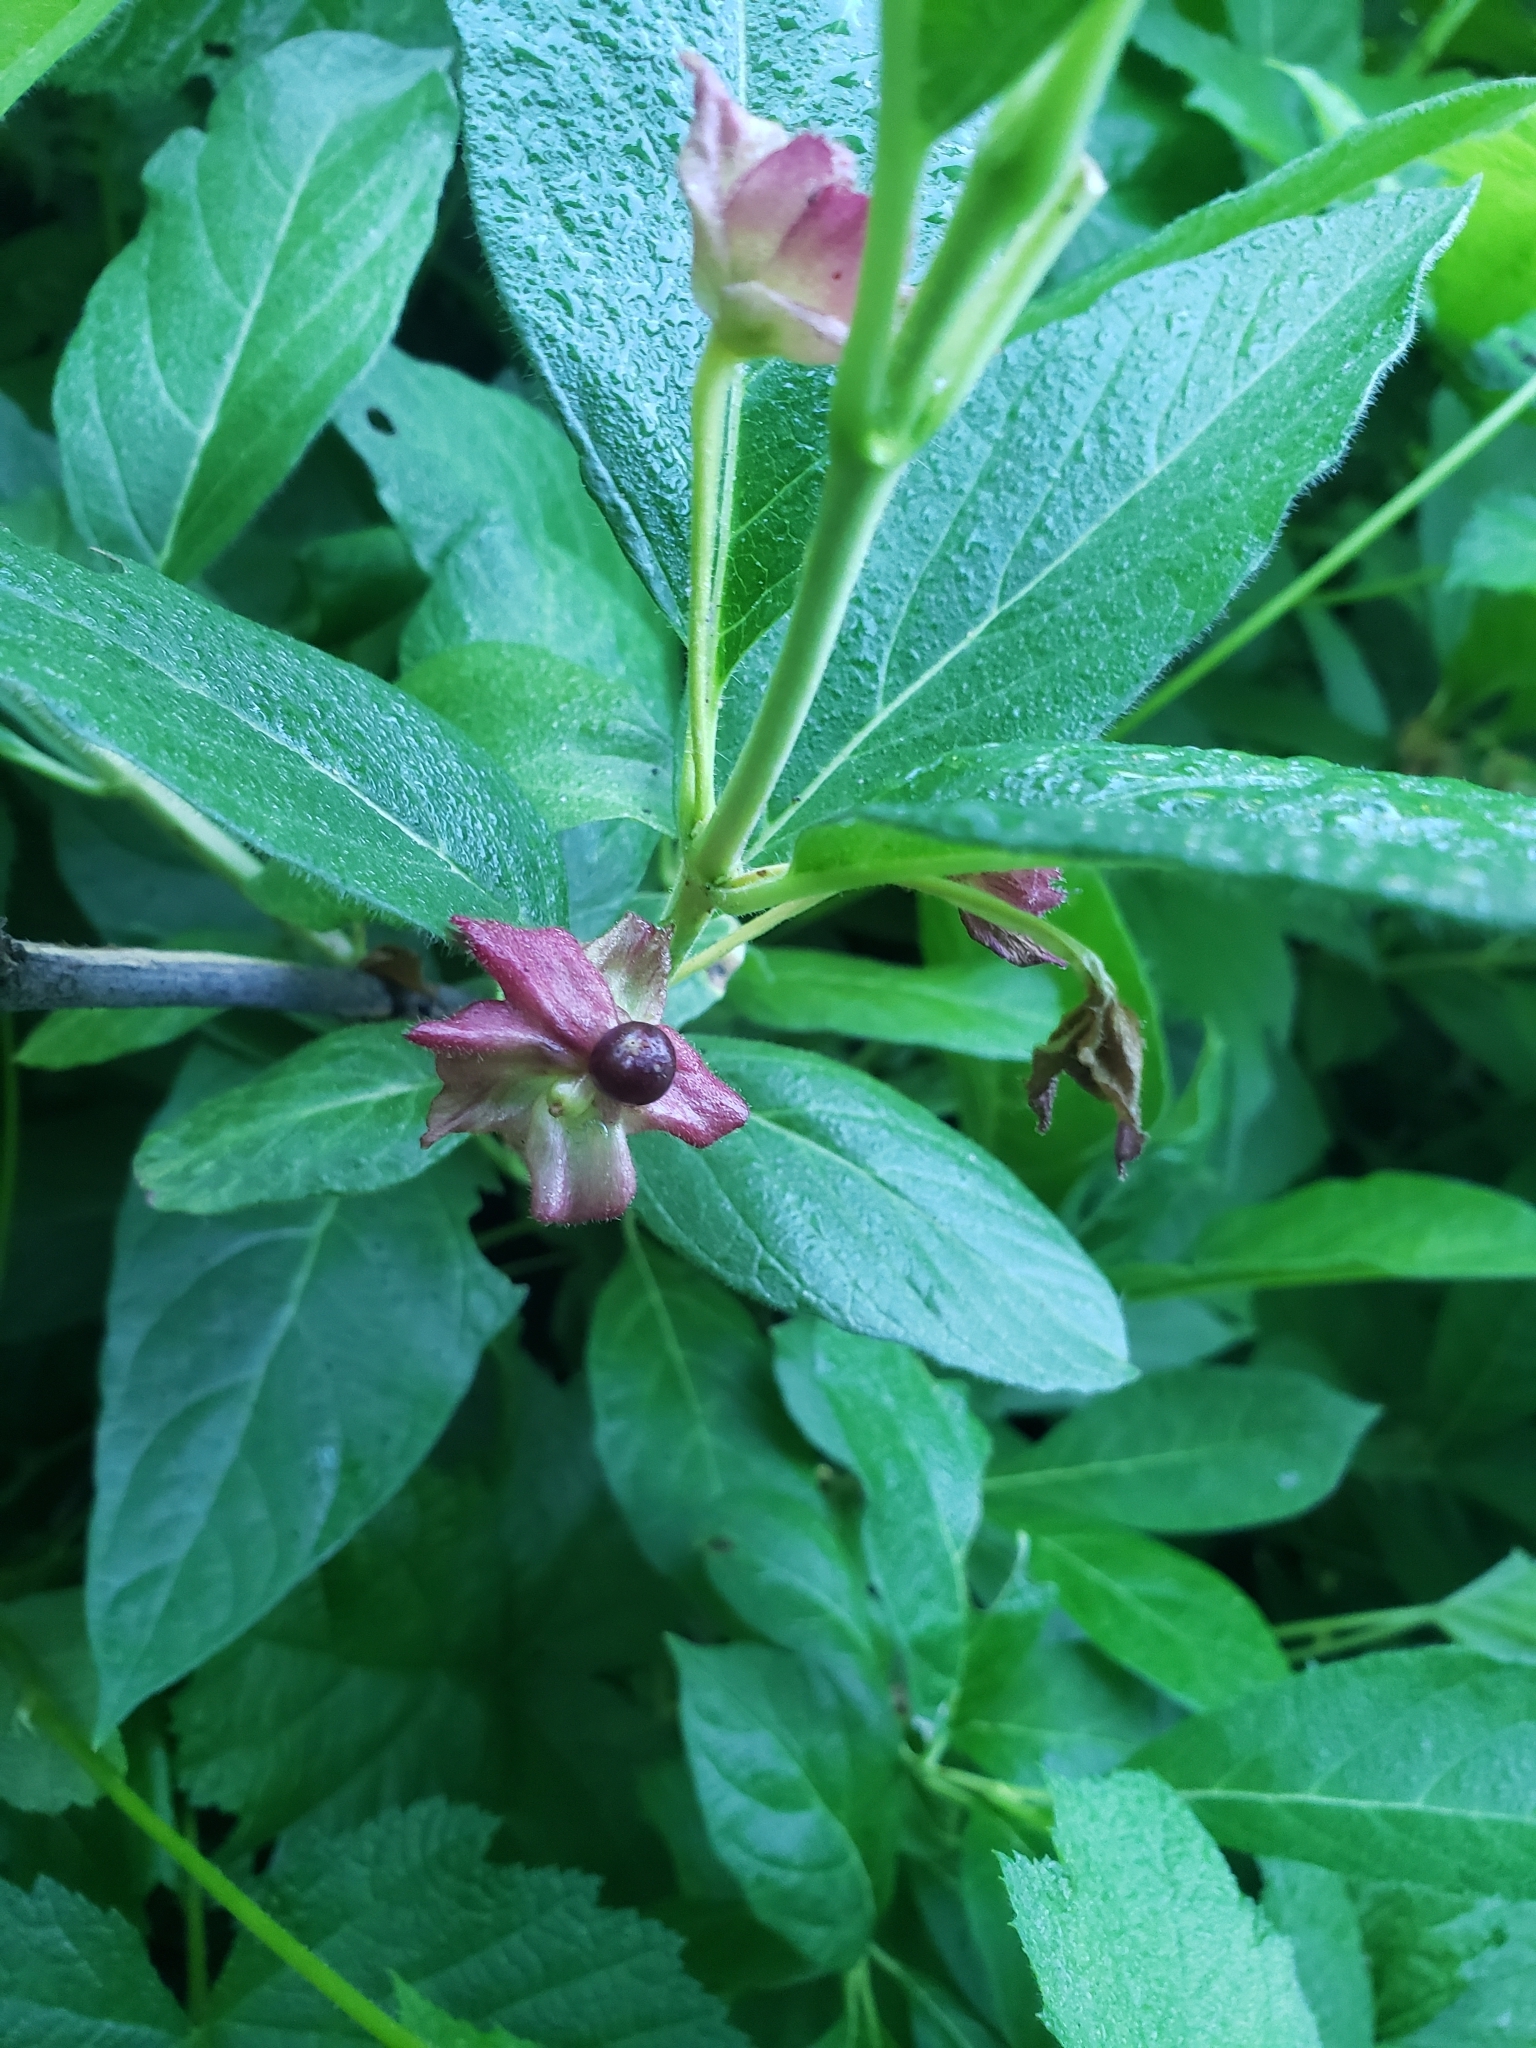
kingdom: Plantae
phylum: Tracheophyta
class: Magnoliopsida
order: Dipsacales
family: Caprifoliaceae
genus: Lonicera
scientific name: Lonicera involucrata
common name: Californian honeysuckle
